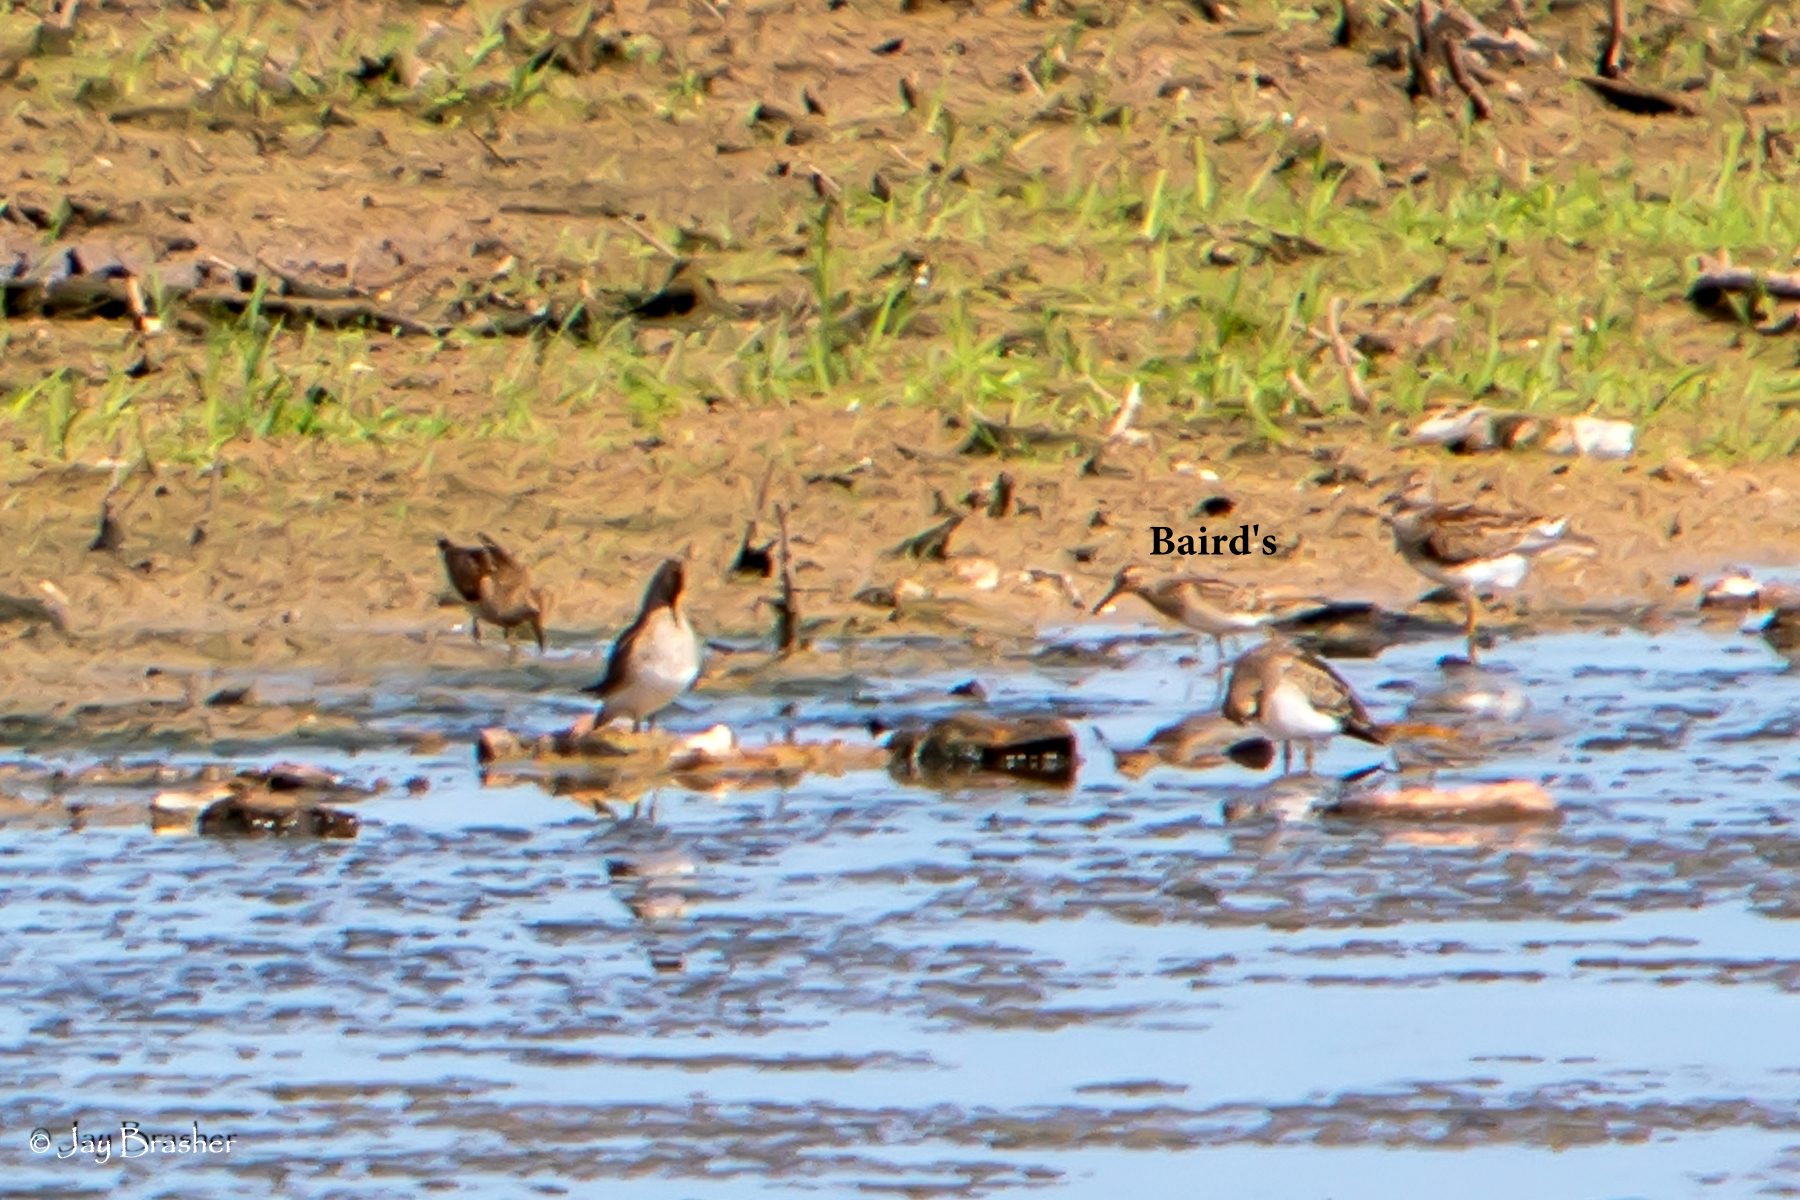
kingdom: Animalia
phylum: Chordata
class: Aves
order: Charadriiformes
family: Scolopacidae
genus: Calidris
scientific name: Calidris melanotos
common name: Pectoral sandpiper
